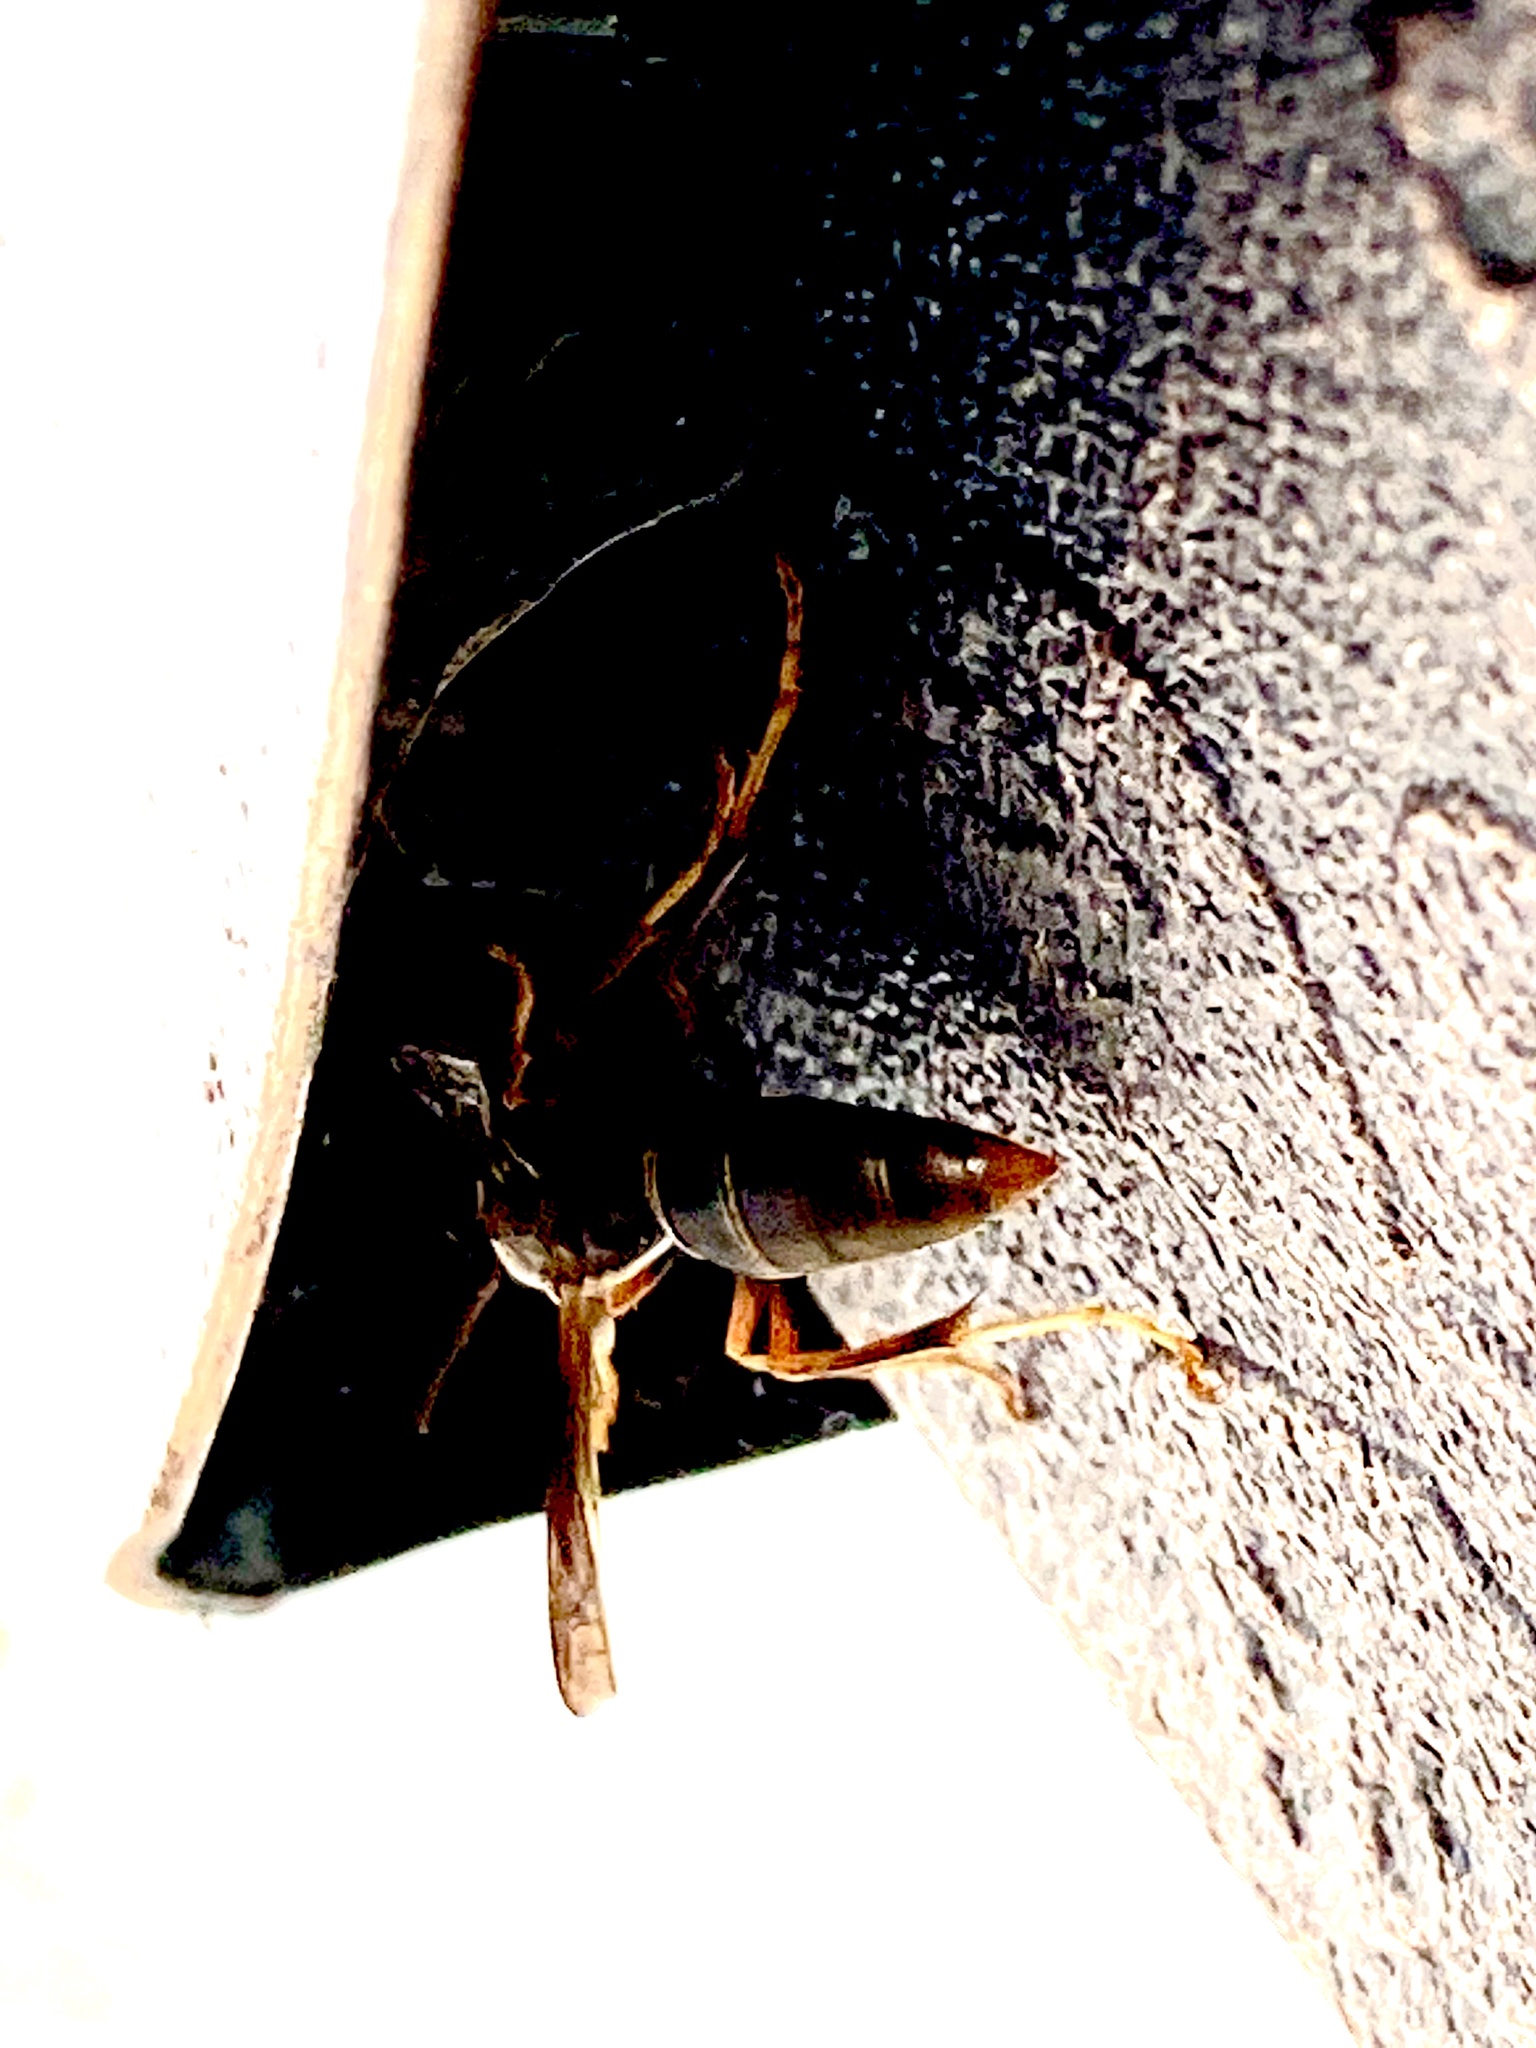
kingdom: Animalia
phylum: Arthropoda
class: Insecta
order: Hymenoptera
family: Eumenidae
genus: Polistes
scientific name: Polistes fuscatus
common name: Dark paper wasp
